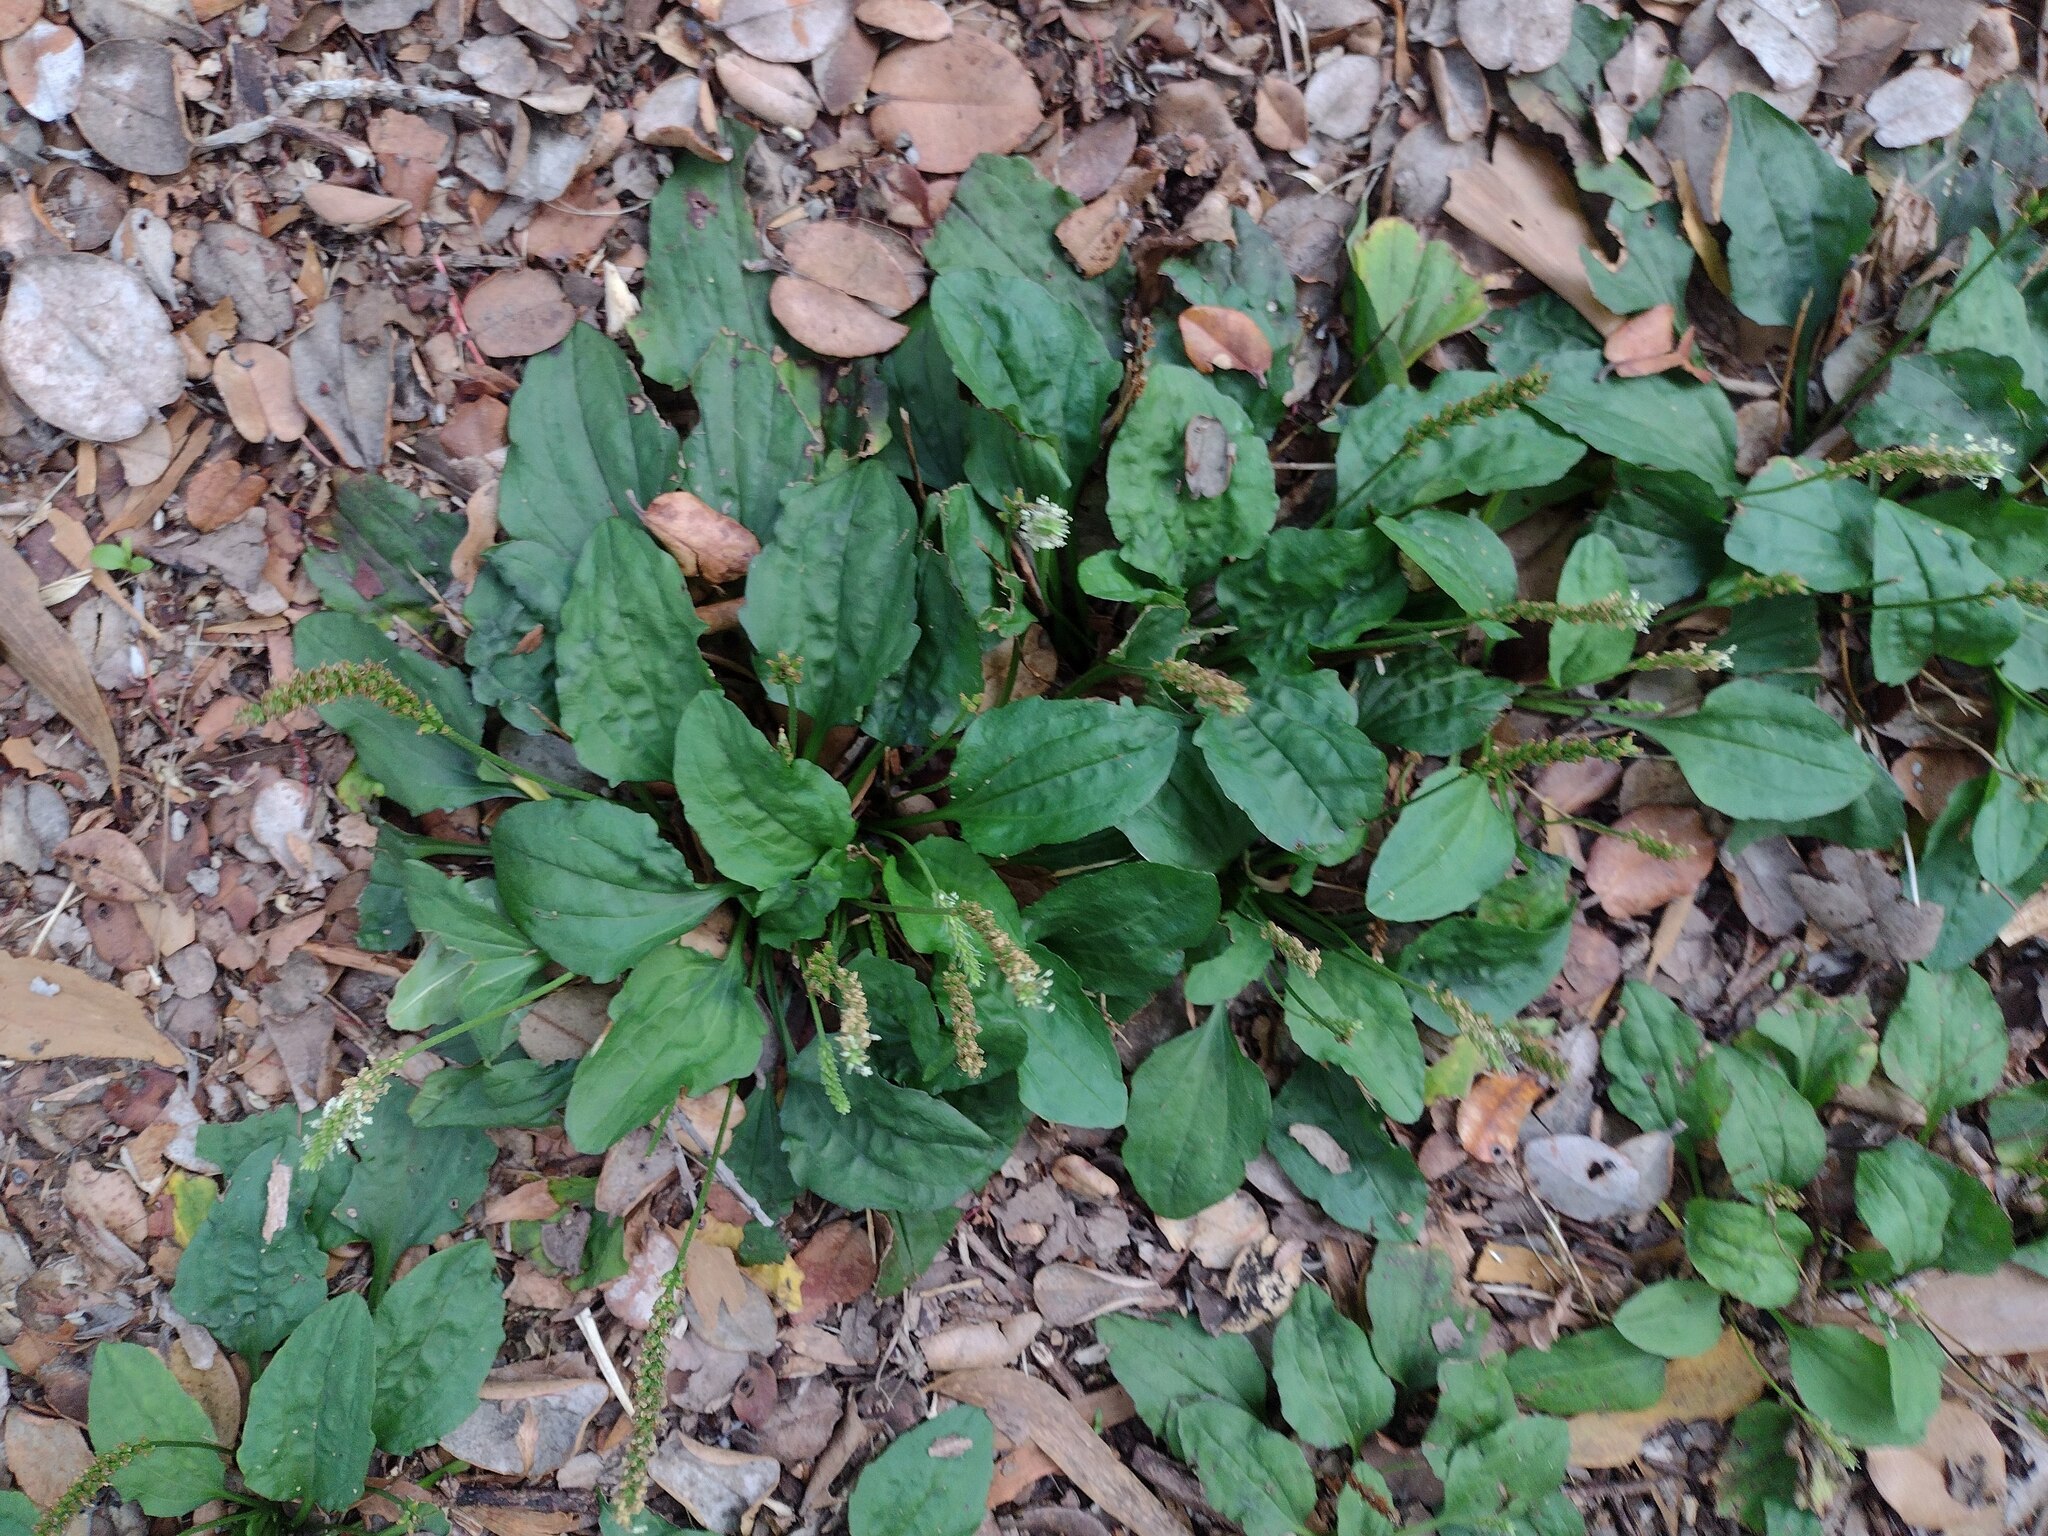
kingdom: Plantae
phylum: Tracheophyta
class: Magnoliopsida
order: Lamiales
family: Plantaginaceae
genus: Plantago
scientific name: Plantago rugelii
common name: American plantain
